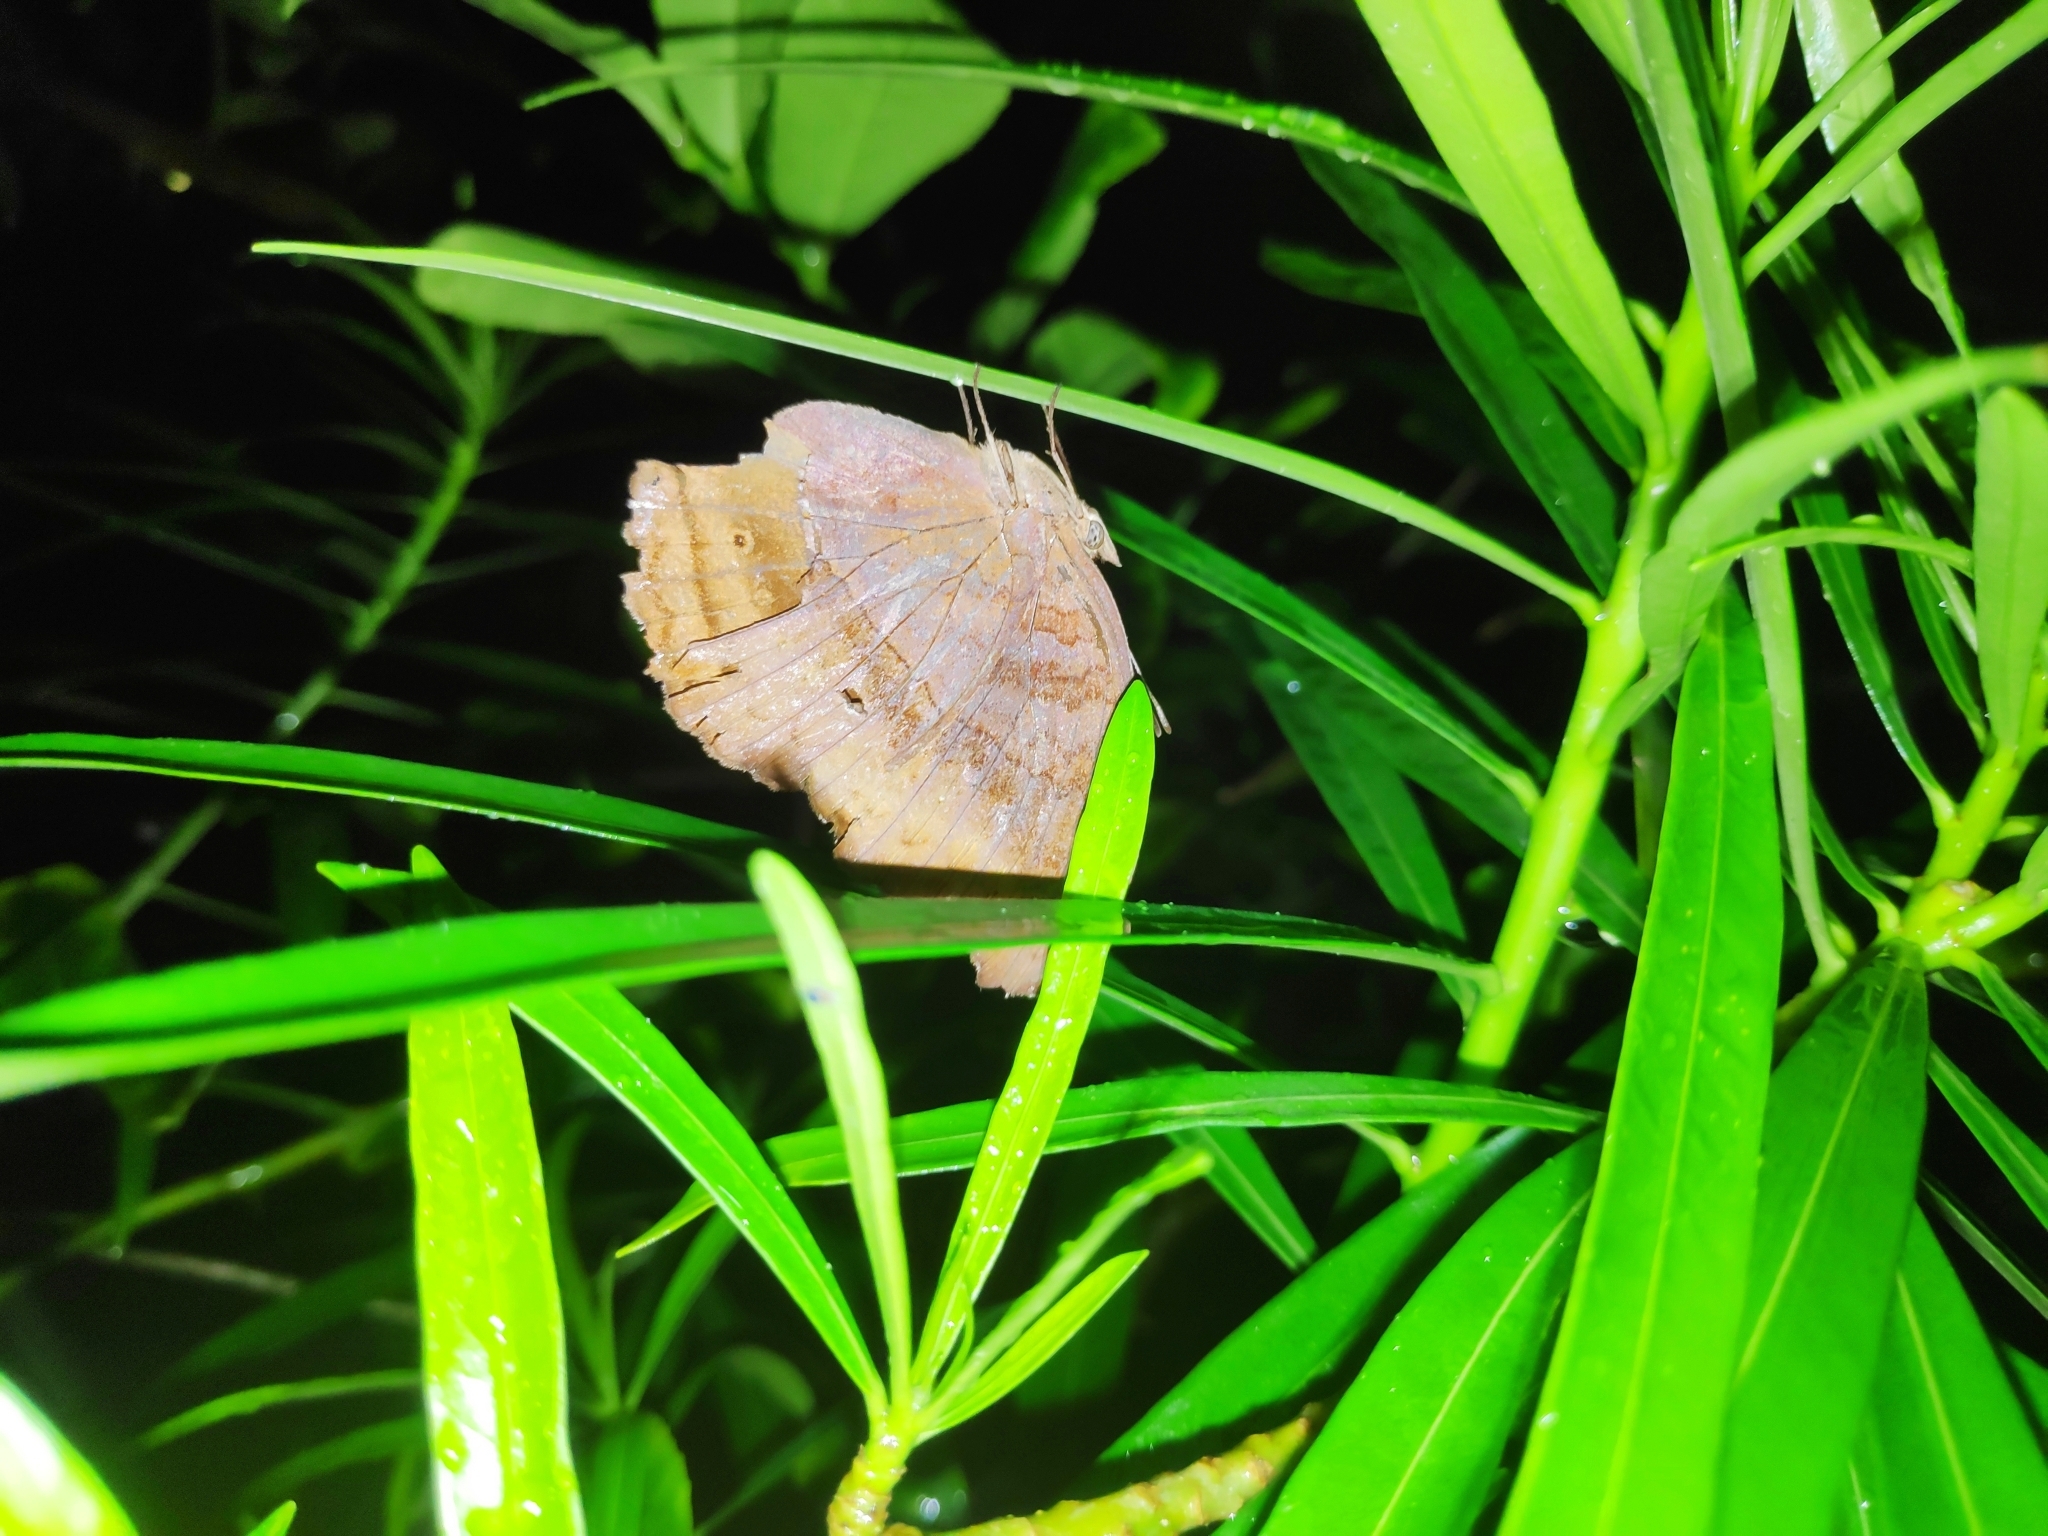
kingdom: Animalia
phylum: Arthropoda
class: Insecta
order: Lepidoptera
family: Nymphalidae
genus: Junonia
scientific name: Junonia iphita
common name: Chocolate pansy
